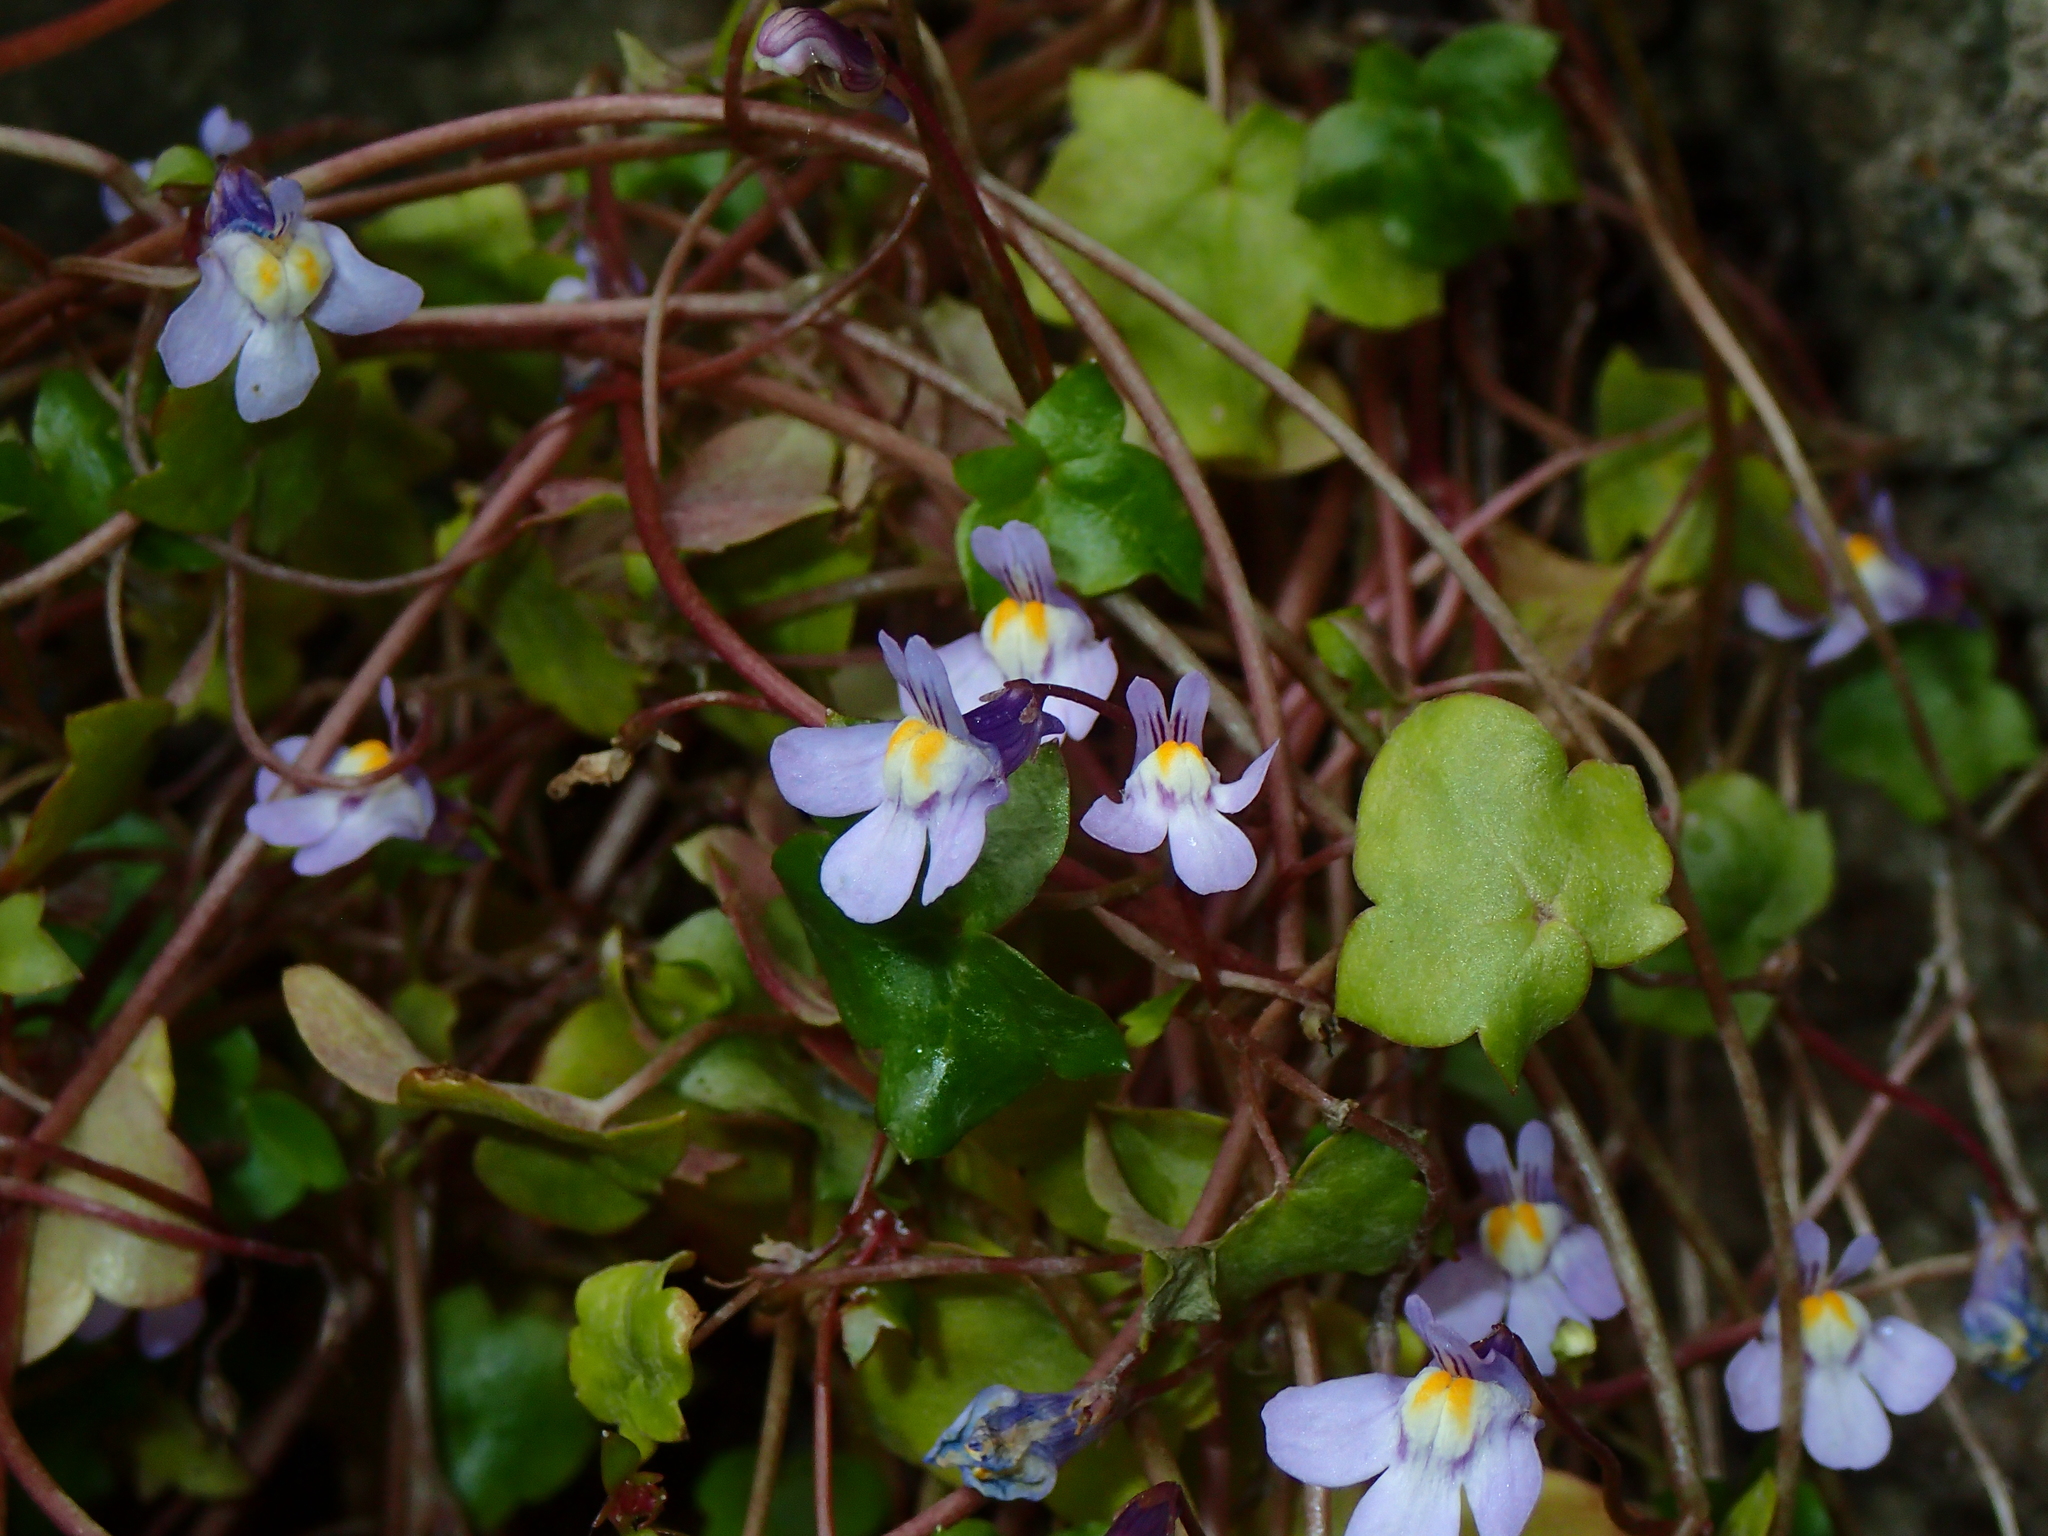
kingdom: Plantae
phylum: Tracheophyta
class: Magnoliopsida
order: Lamiales
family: Plantaginaceae
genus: Cymbalaria
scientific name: Cymbalaria muralis
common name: Ivy-leaved toadflax
